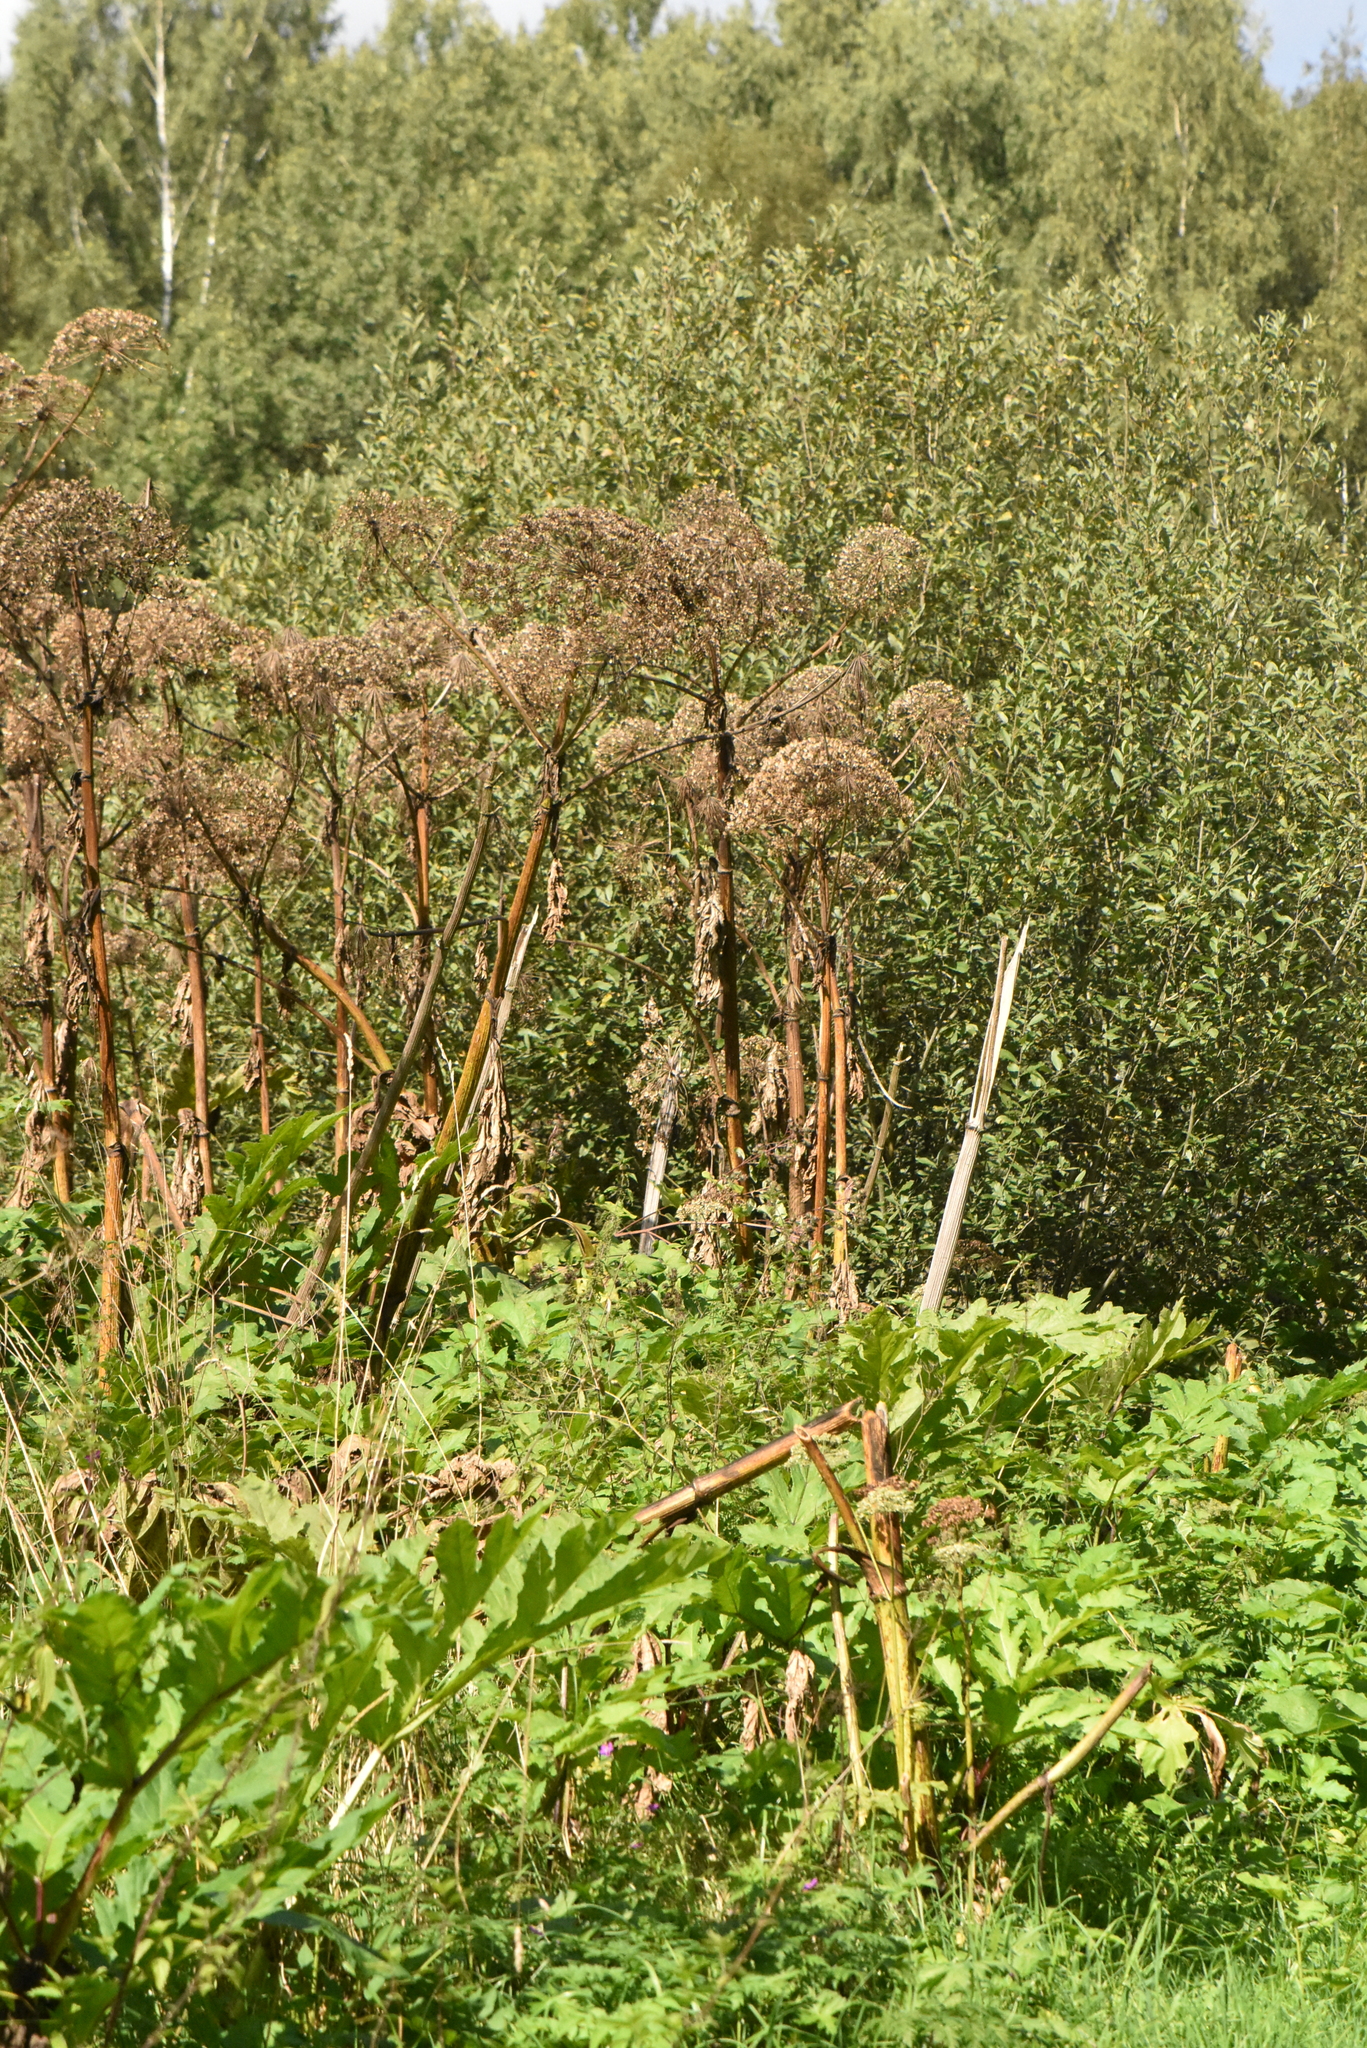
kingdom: Plantae
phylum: Tracheophyta
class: Magnoliopsida
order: Apiales
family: Apiaceae
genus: Heracleum
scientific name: Heracleum sosnowskyi
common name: Sosnowsky's hogweed
